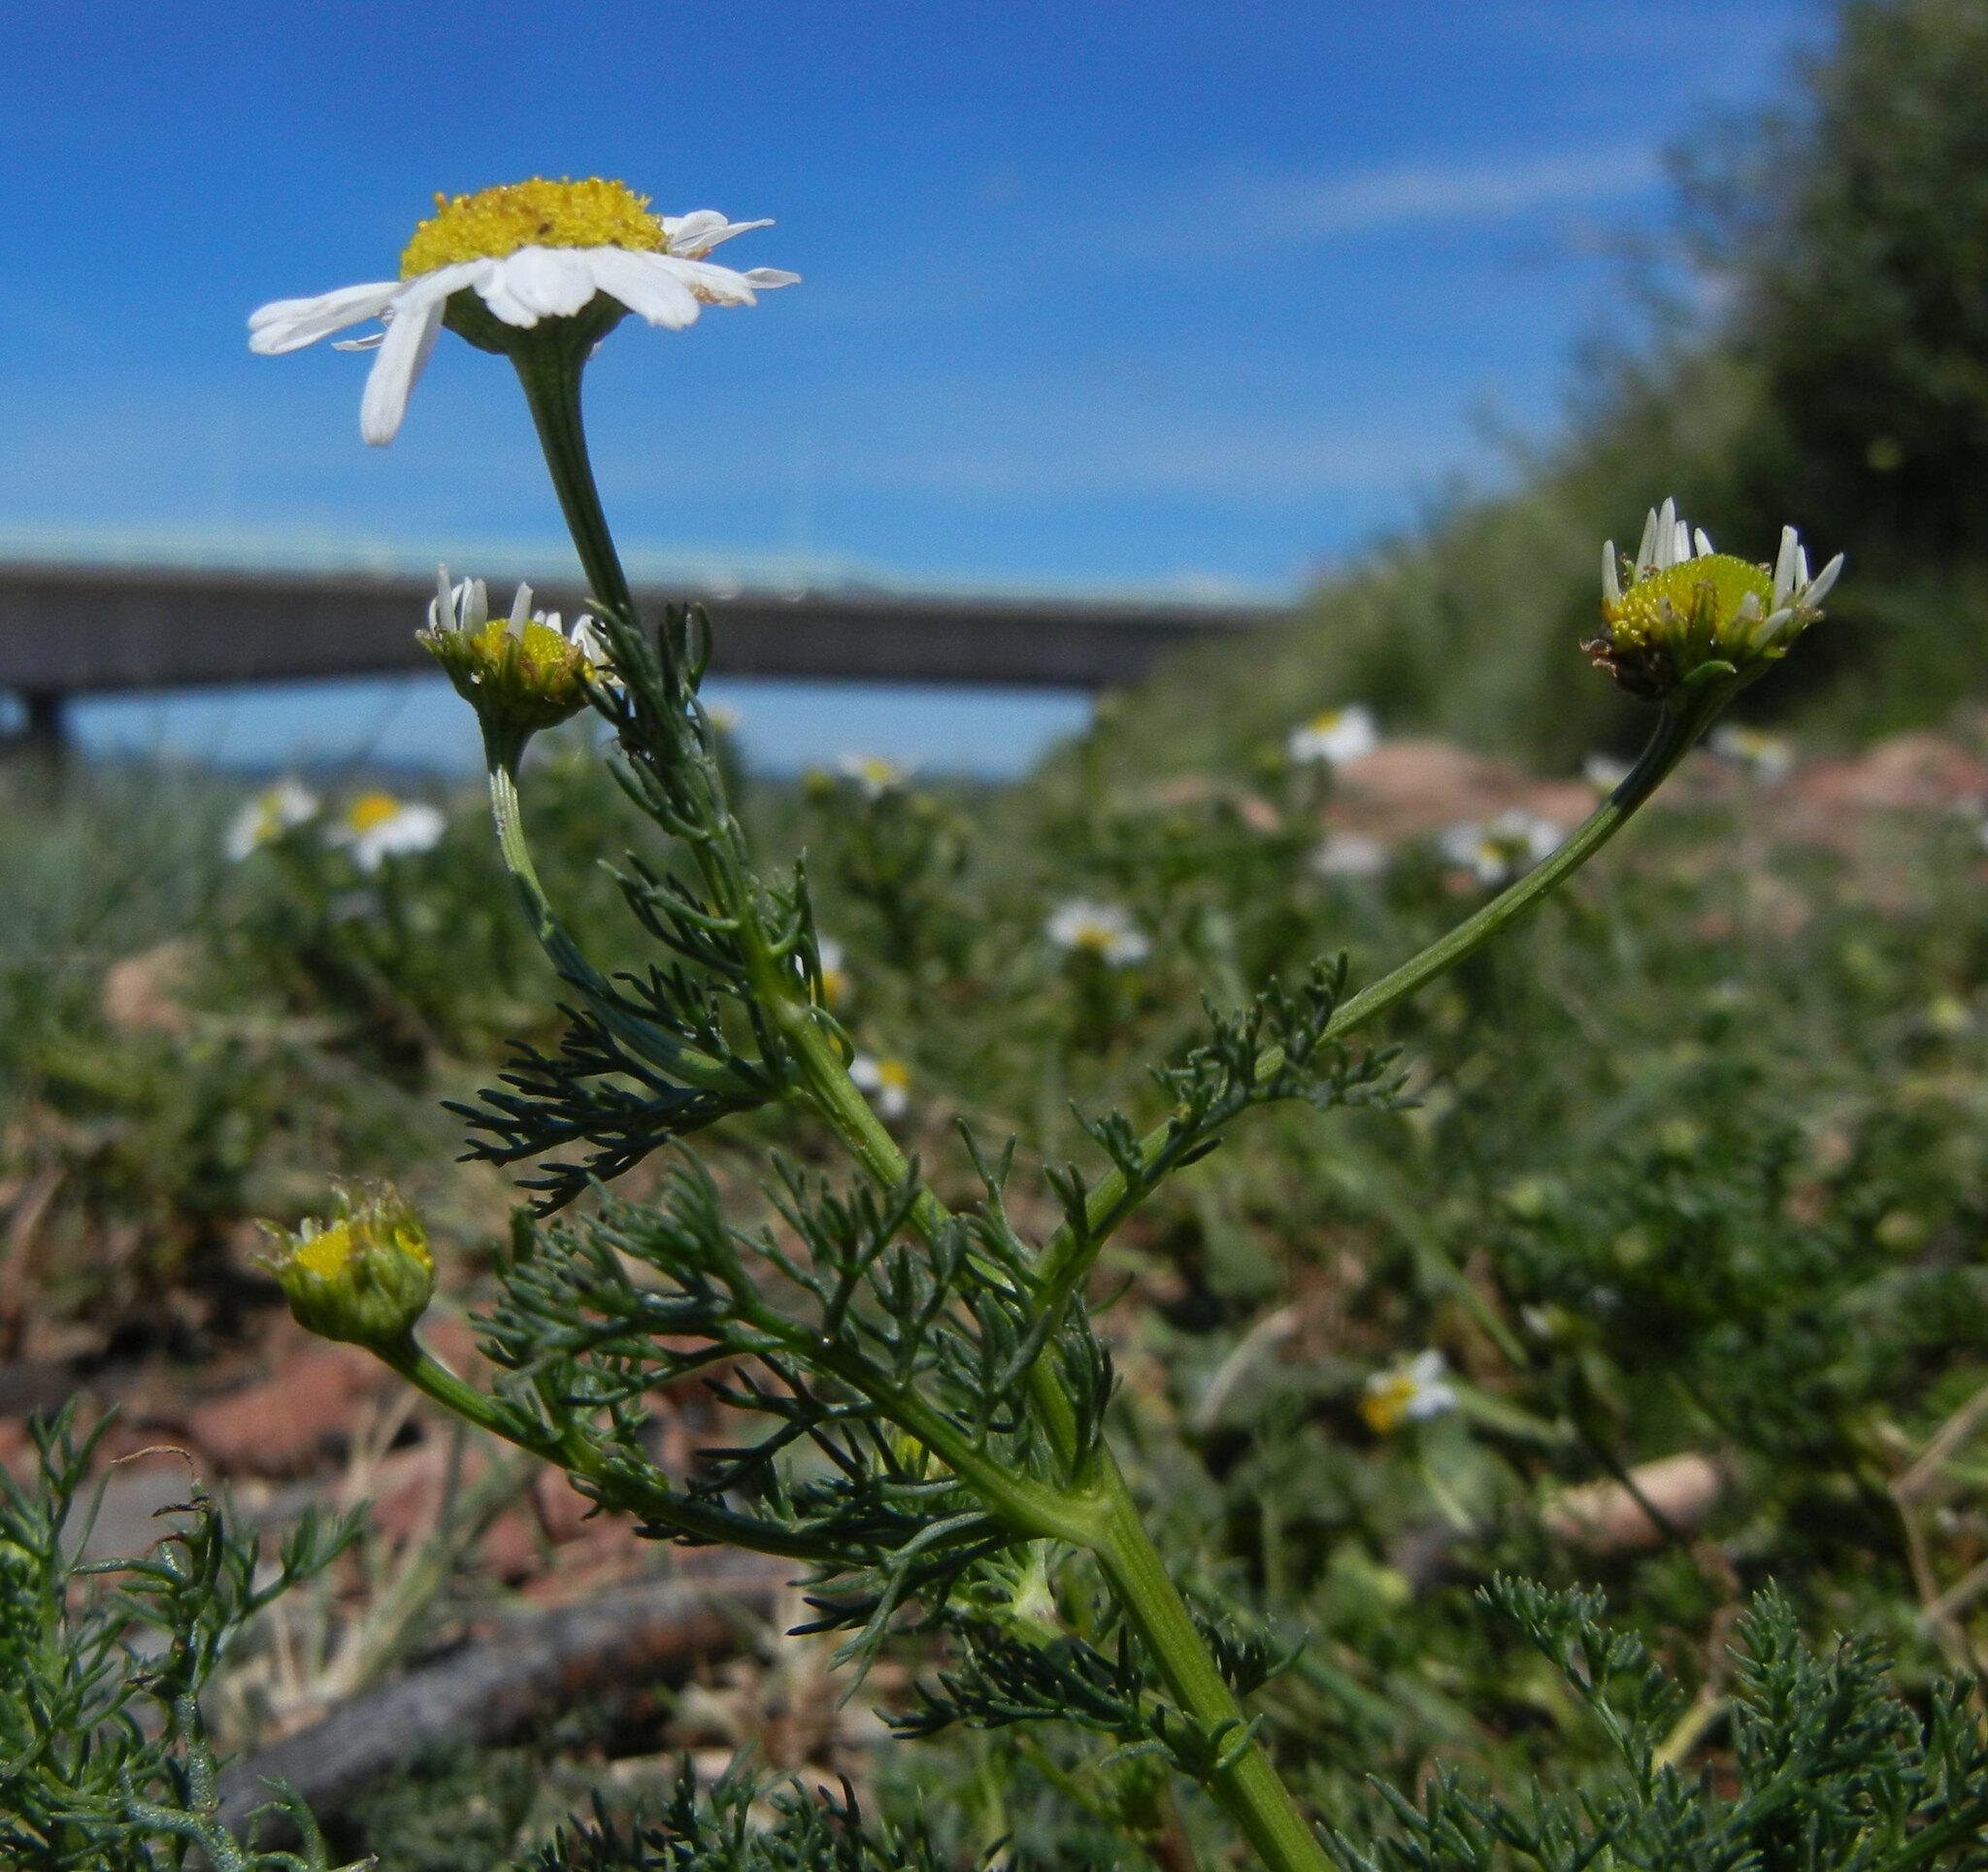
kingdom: Plantae
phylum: Tracheophyta
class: Magnoliopsida
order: Asterales
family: Asteraceae
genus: Tripleurospermum
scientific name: Tripleurospermum maritimum
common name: Sea mayweed
